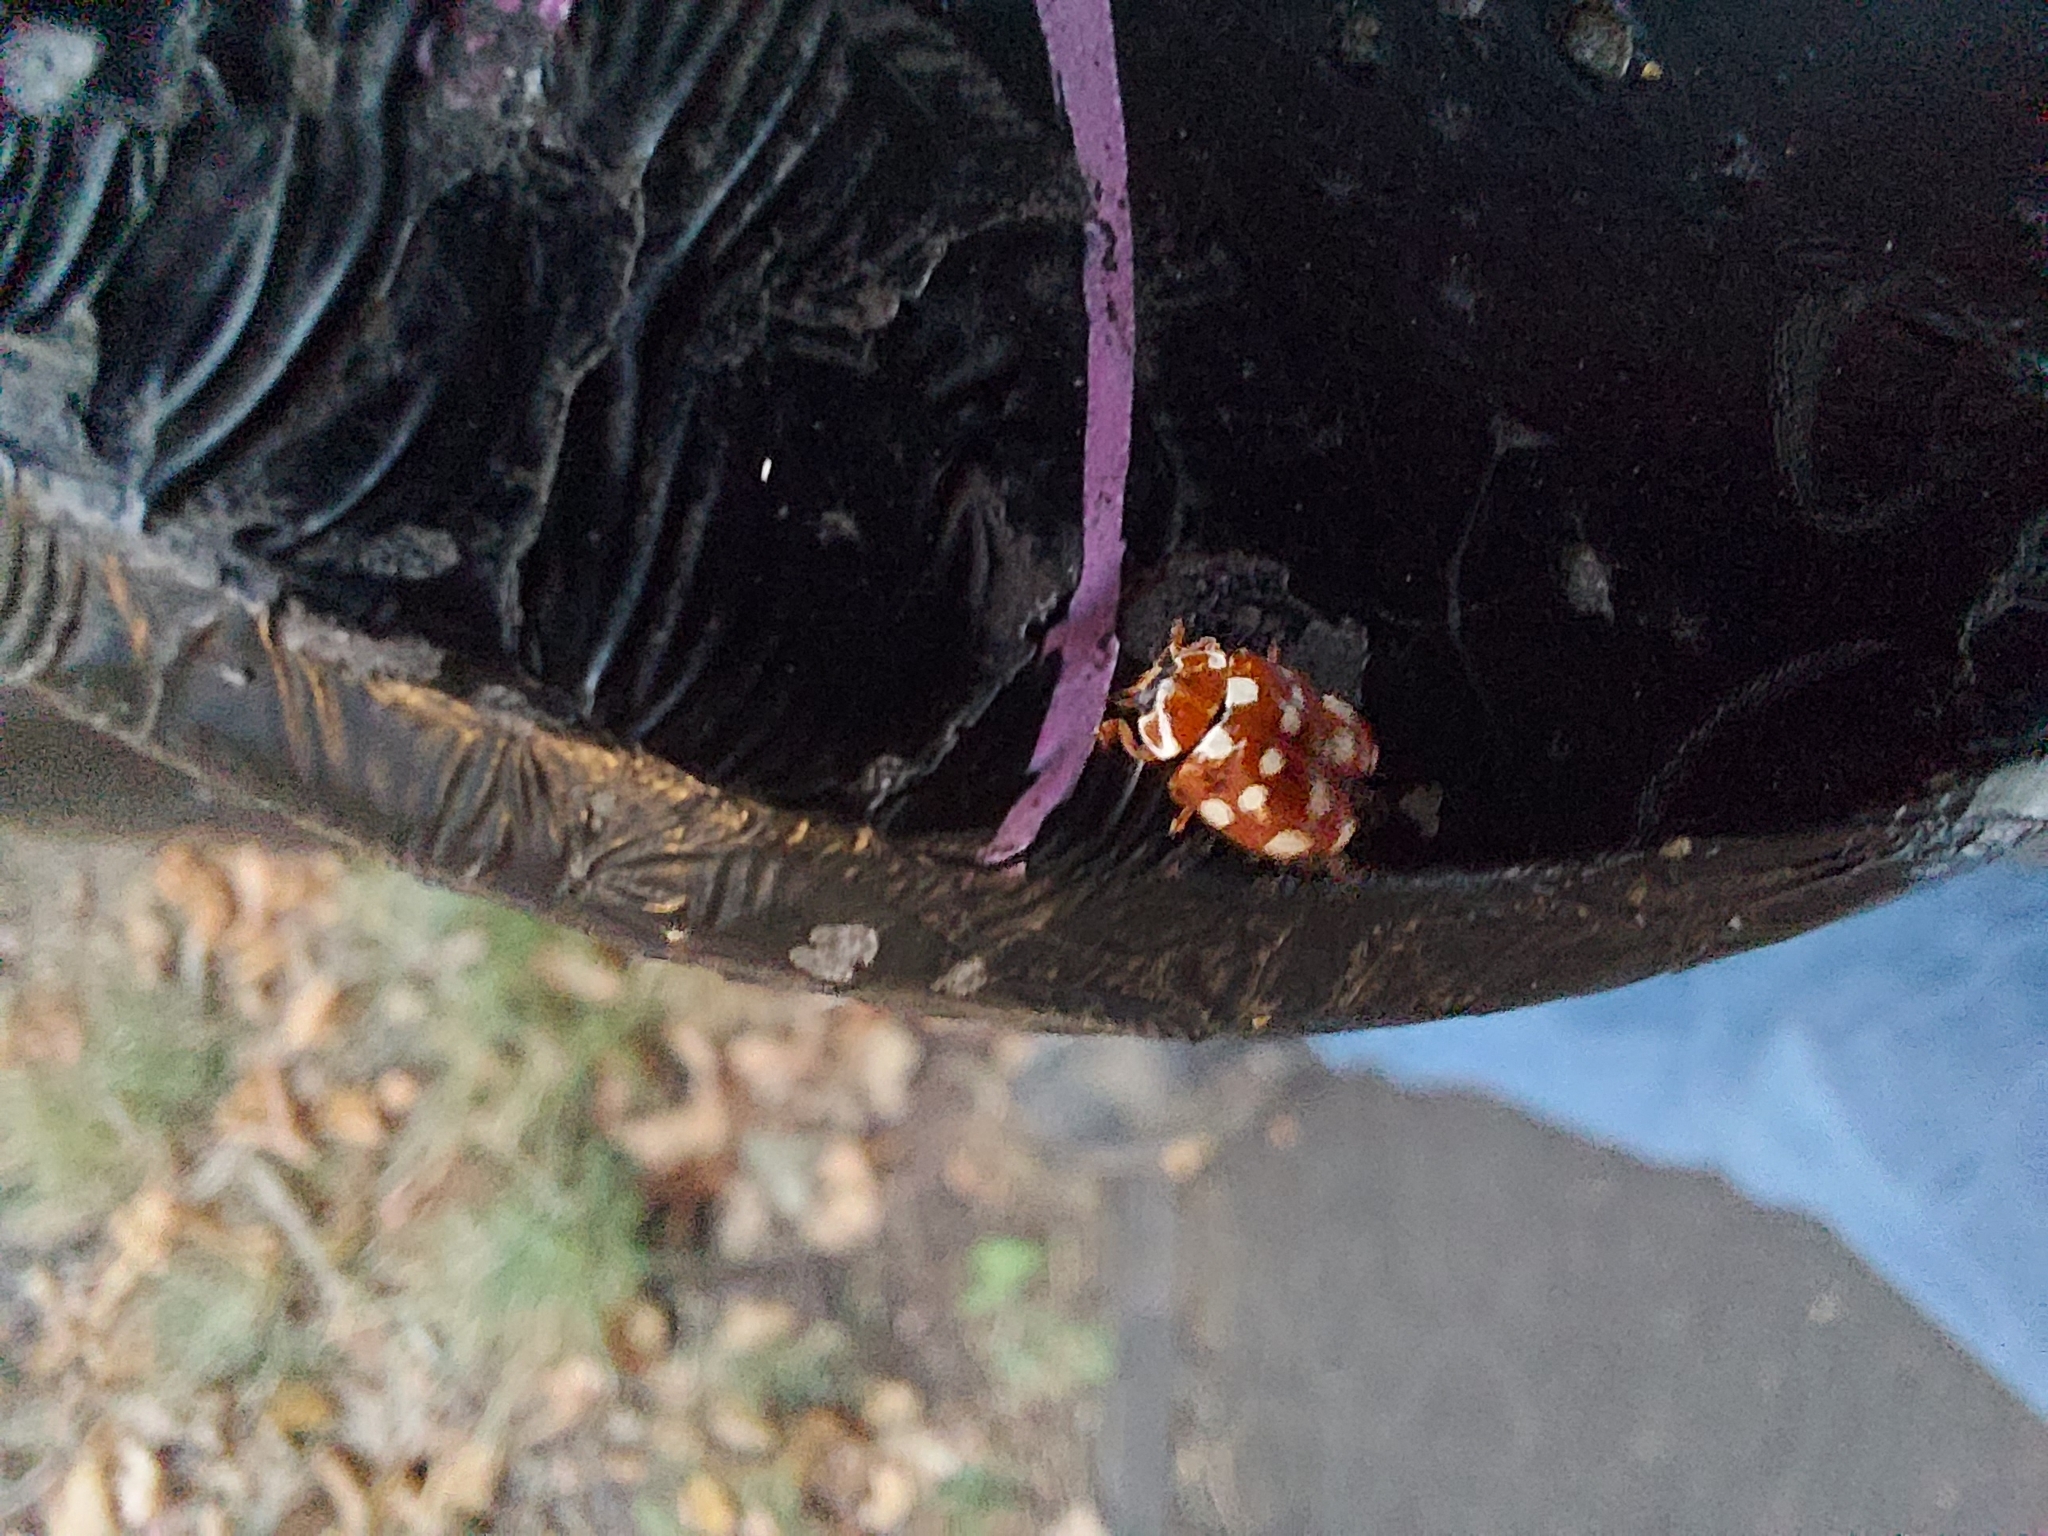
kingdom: Animalia
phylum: Arthropoda
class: Insecta
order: Coleoptera
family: Coccinellidae
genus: Calvia
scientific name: Calvia quatuordecimguttata
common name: Cream-spot ladybird
